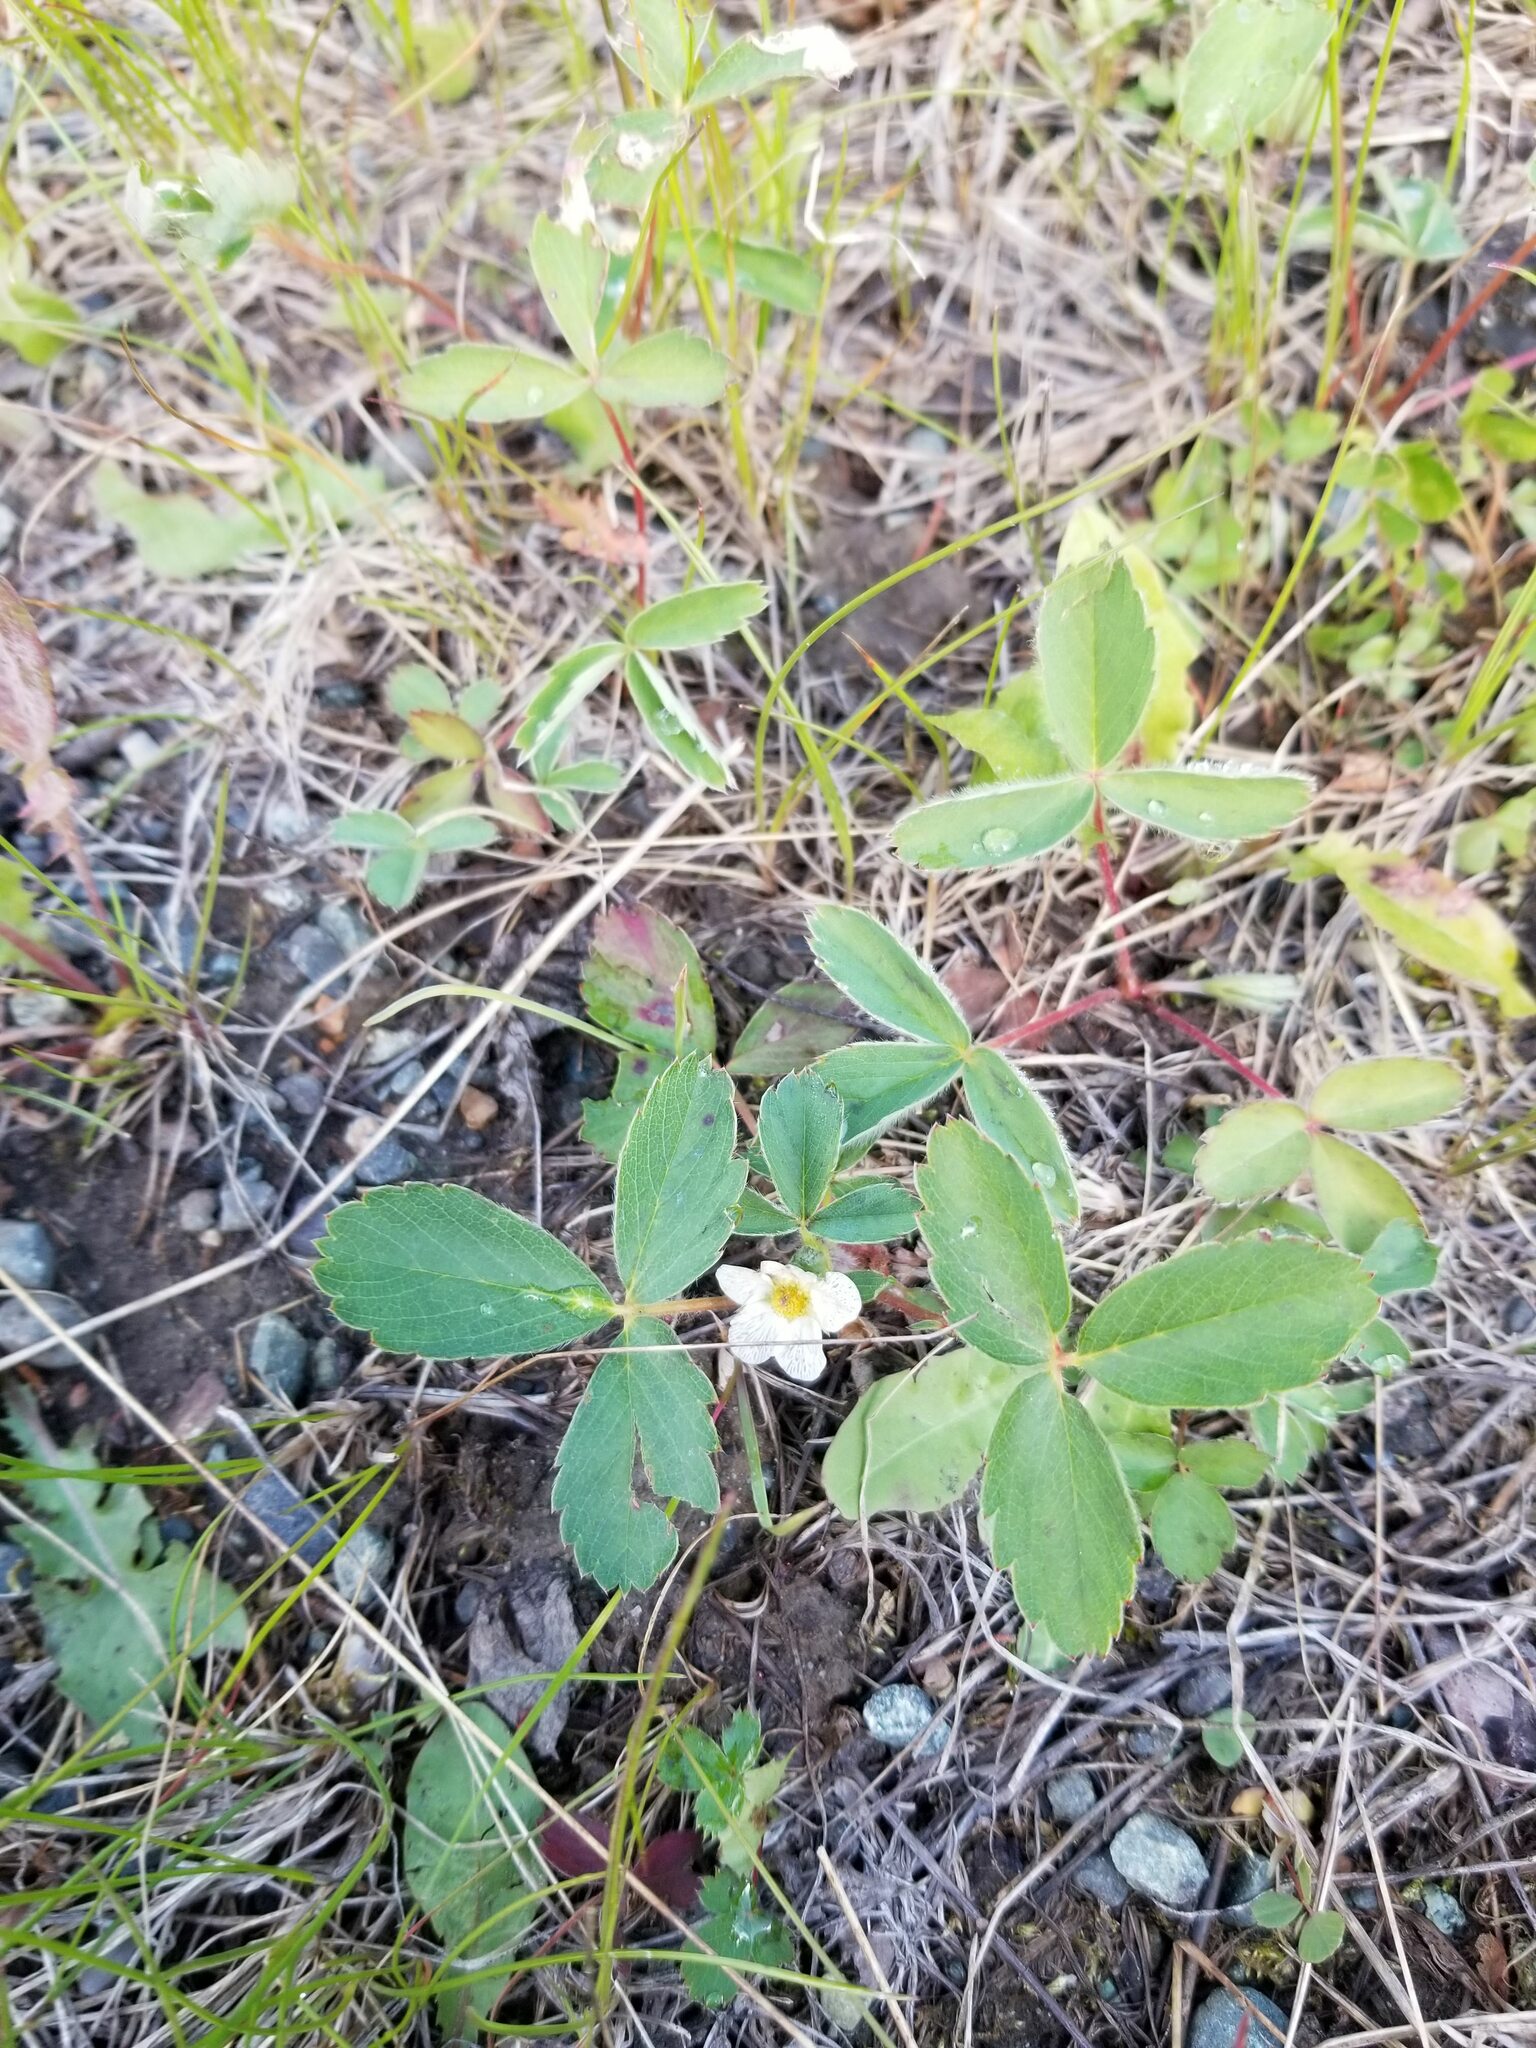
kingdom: Plantae
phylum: Tracheophyta
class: Magnoliopsida
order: Rosales
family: Rosaceae
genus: Fragaria
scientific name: Fragaria virginiana
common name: Thickleaved wild strawberry
